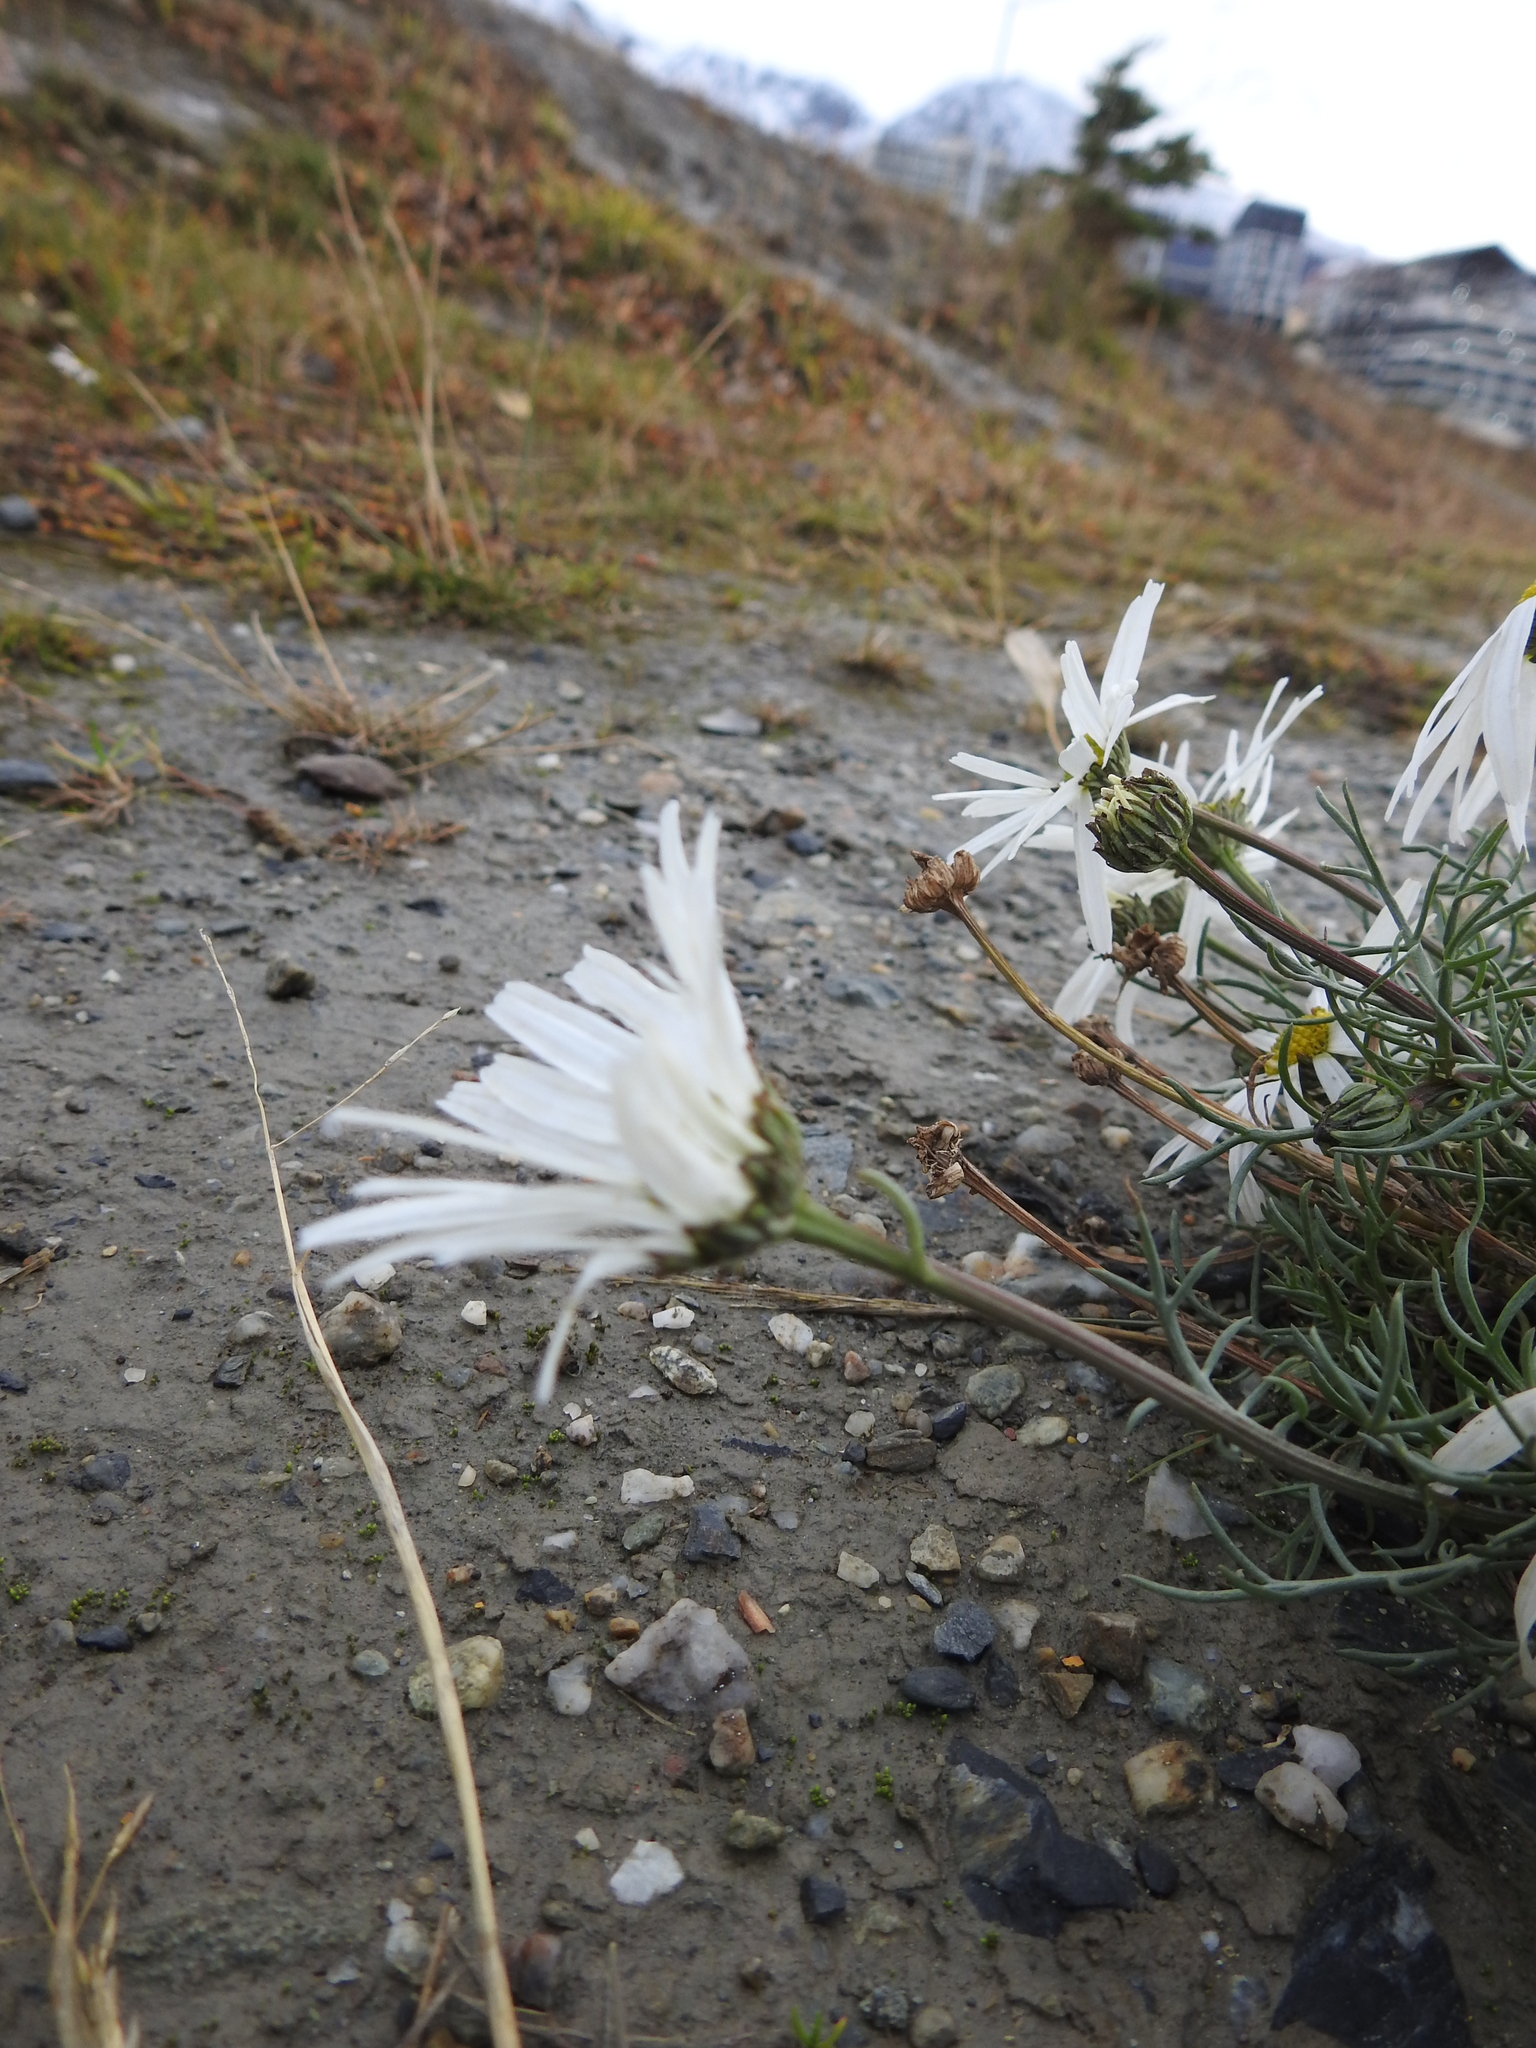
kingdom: Plantae
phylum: Tracheophyta
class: Magnoliopsida
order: Asterales
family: Asteraceae
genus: Tripleurospermum
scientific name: Tripleurospermum maritimum
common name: Sea mayweed
